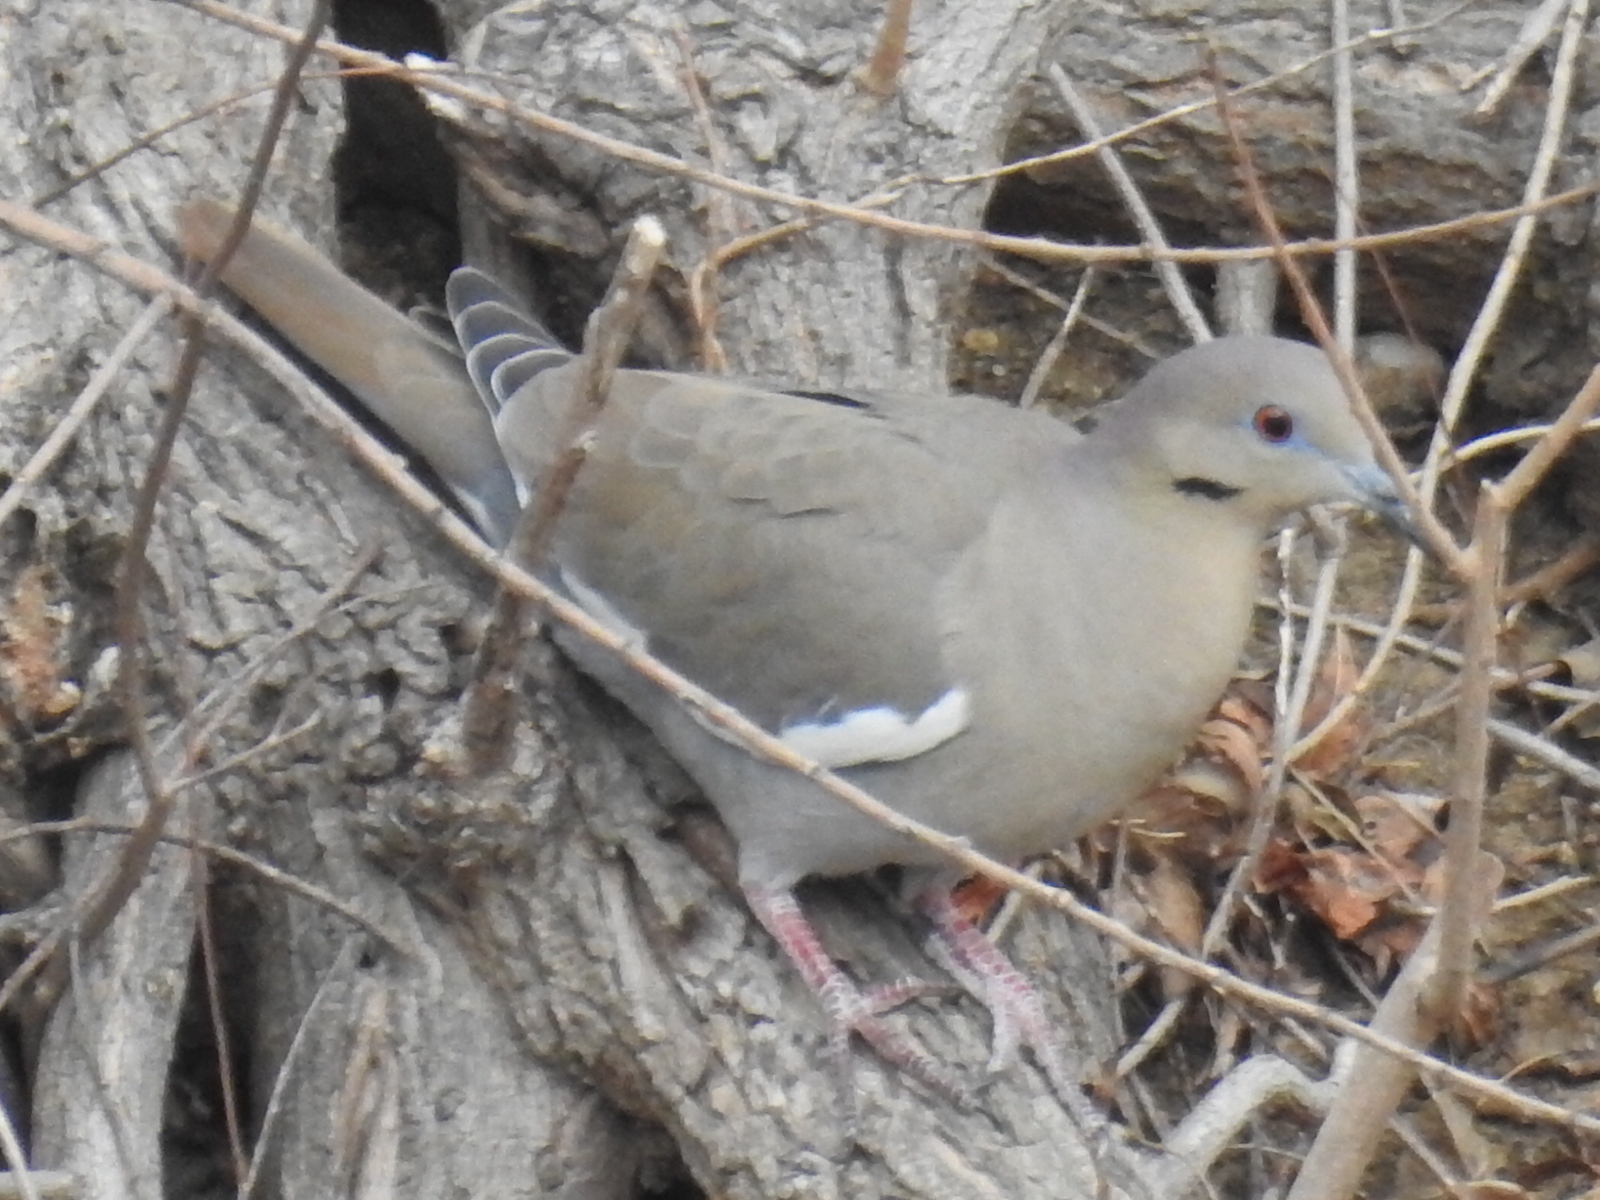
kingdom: Animalia
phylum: Chordata
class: Aves
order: Columbiformes
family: Columbidae
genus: Zenaida
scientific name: Zenaida asiatica
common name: White-winged dove
